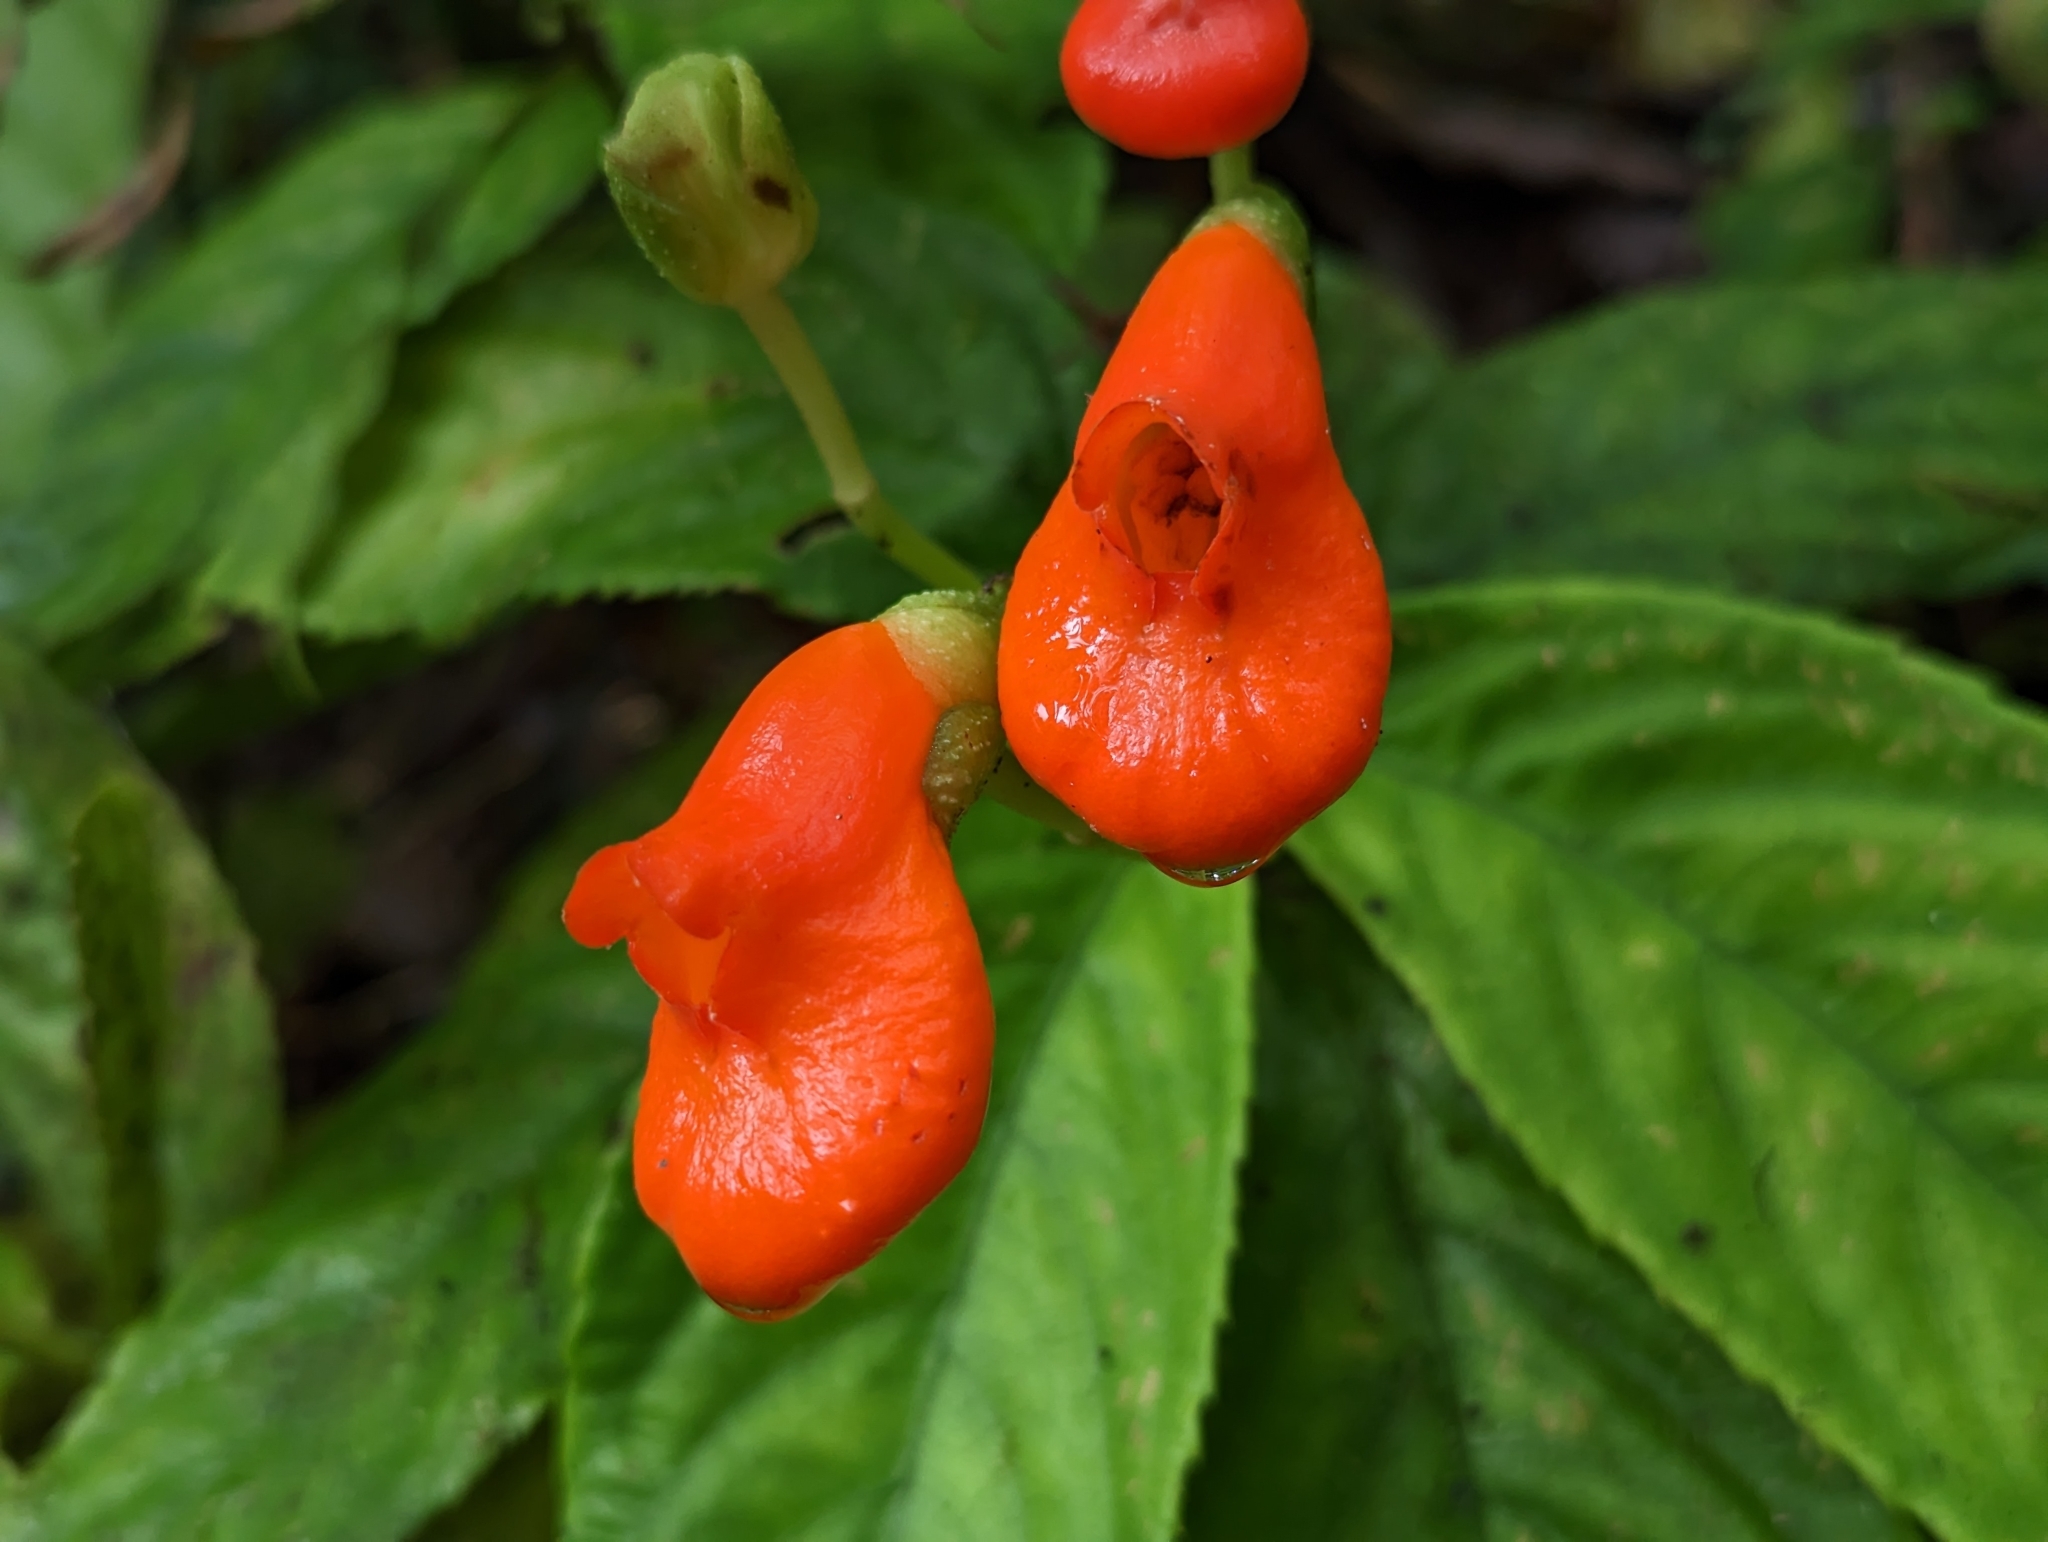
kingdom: Plantae
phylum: Tracheophyta
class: Magnoliopsida
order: Lamiales
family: Gesneriaceae
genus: Gasteranthus
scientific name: Gasteranthus pansamalanus
